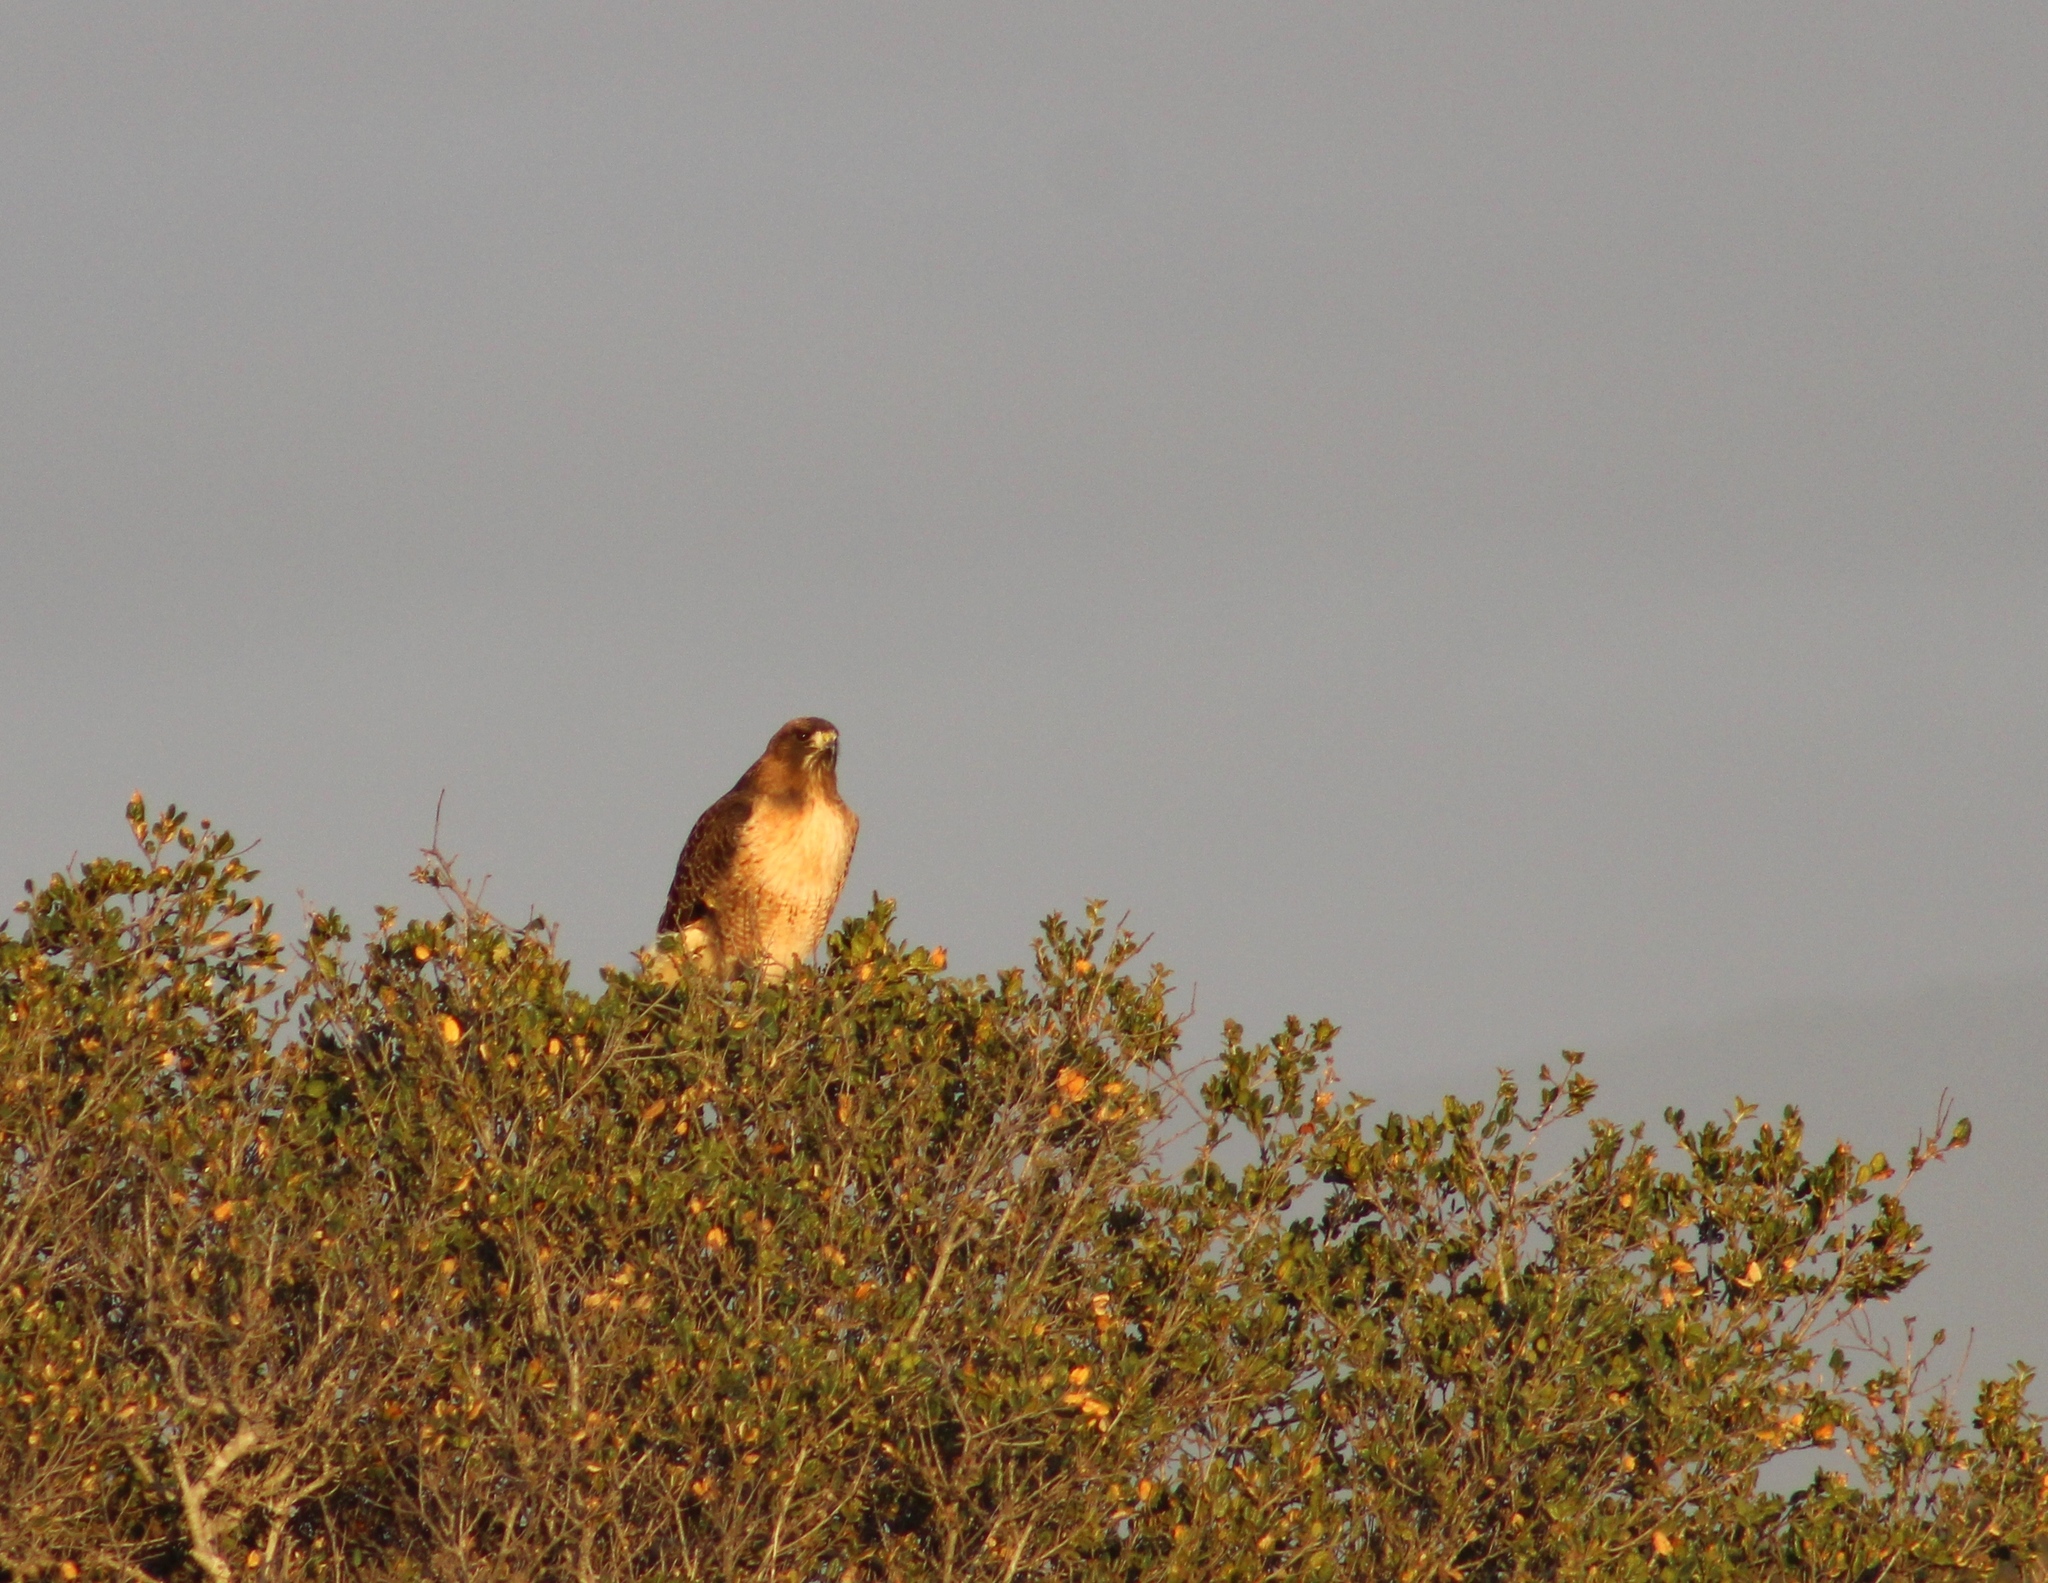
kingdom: Animalia
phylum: Chordata
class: Aves
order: Accipitriformes
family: Accipitridae
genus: Buteo
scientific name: Buteo jamaicensis
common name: Red-tailed hawk
